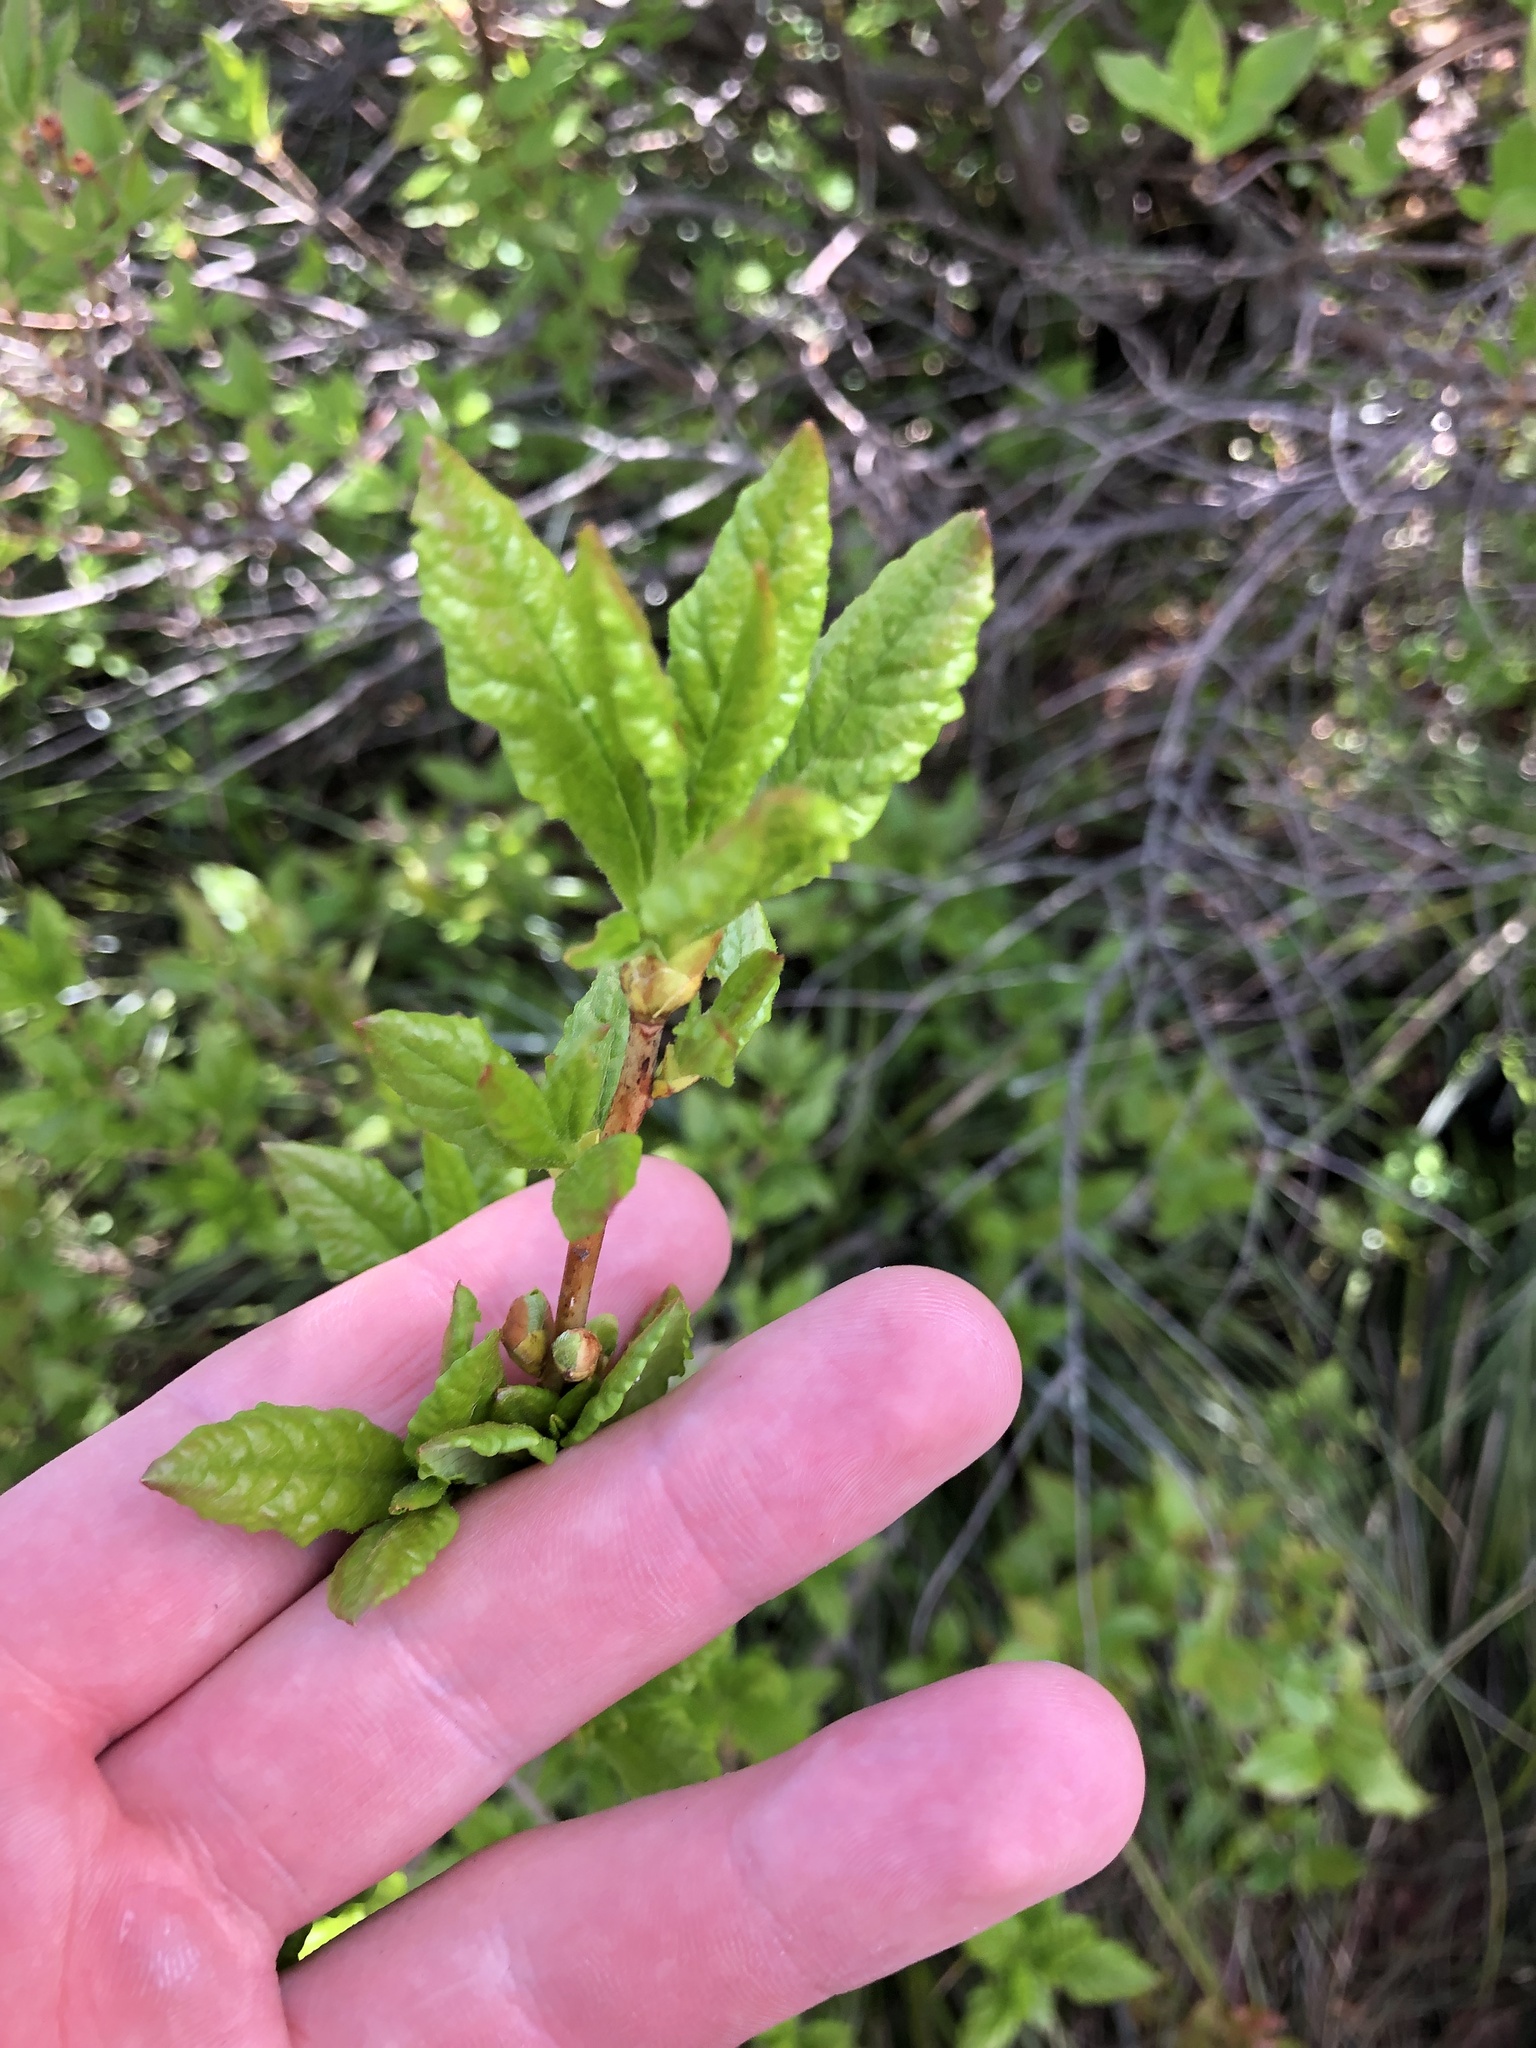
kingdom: Plantae
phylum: Tracheophyta
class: Magnoliopsida
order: Ericales
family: Ericaceae
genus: Rhododendron
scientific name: Rhododendron albiflorum
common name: White rhododendron
